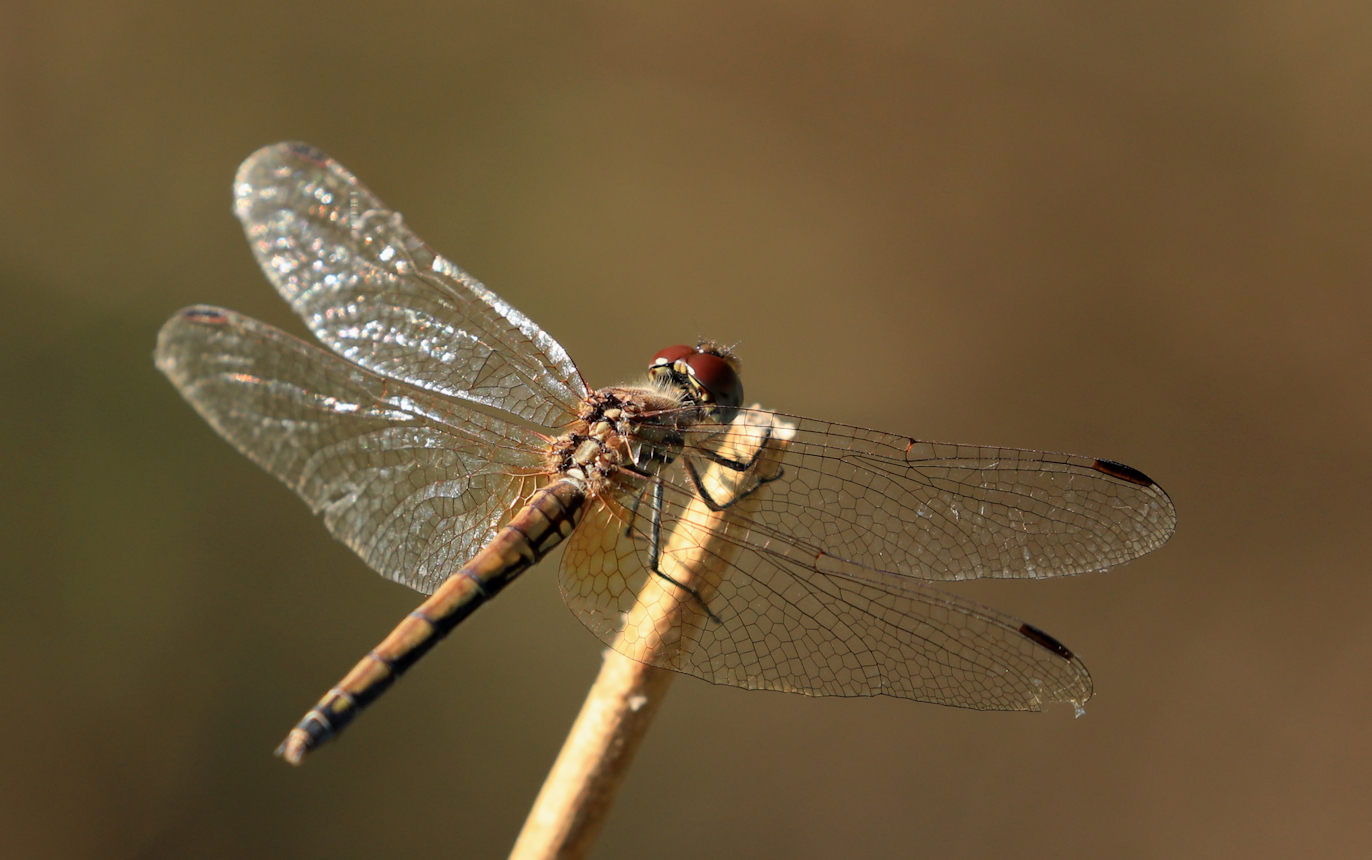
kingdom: Animalia
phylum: Arthropoda
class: Insecta
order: Odonata
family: Libellulidae
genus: Trithemis
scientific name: Trithemis arteriosa
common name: Red-veined dropwing
